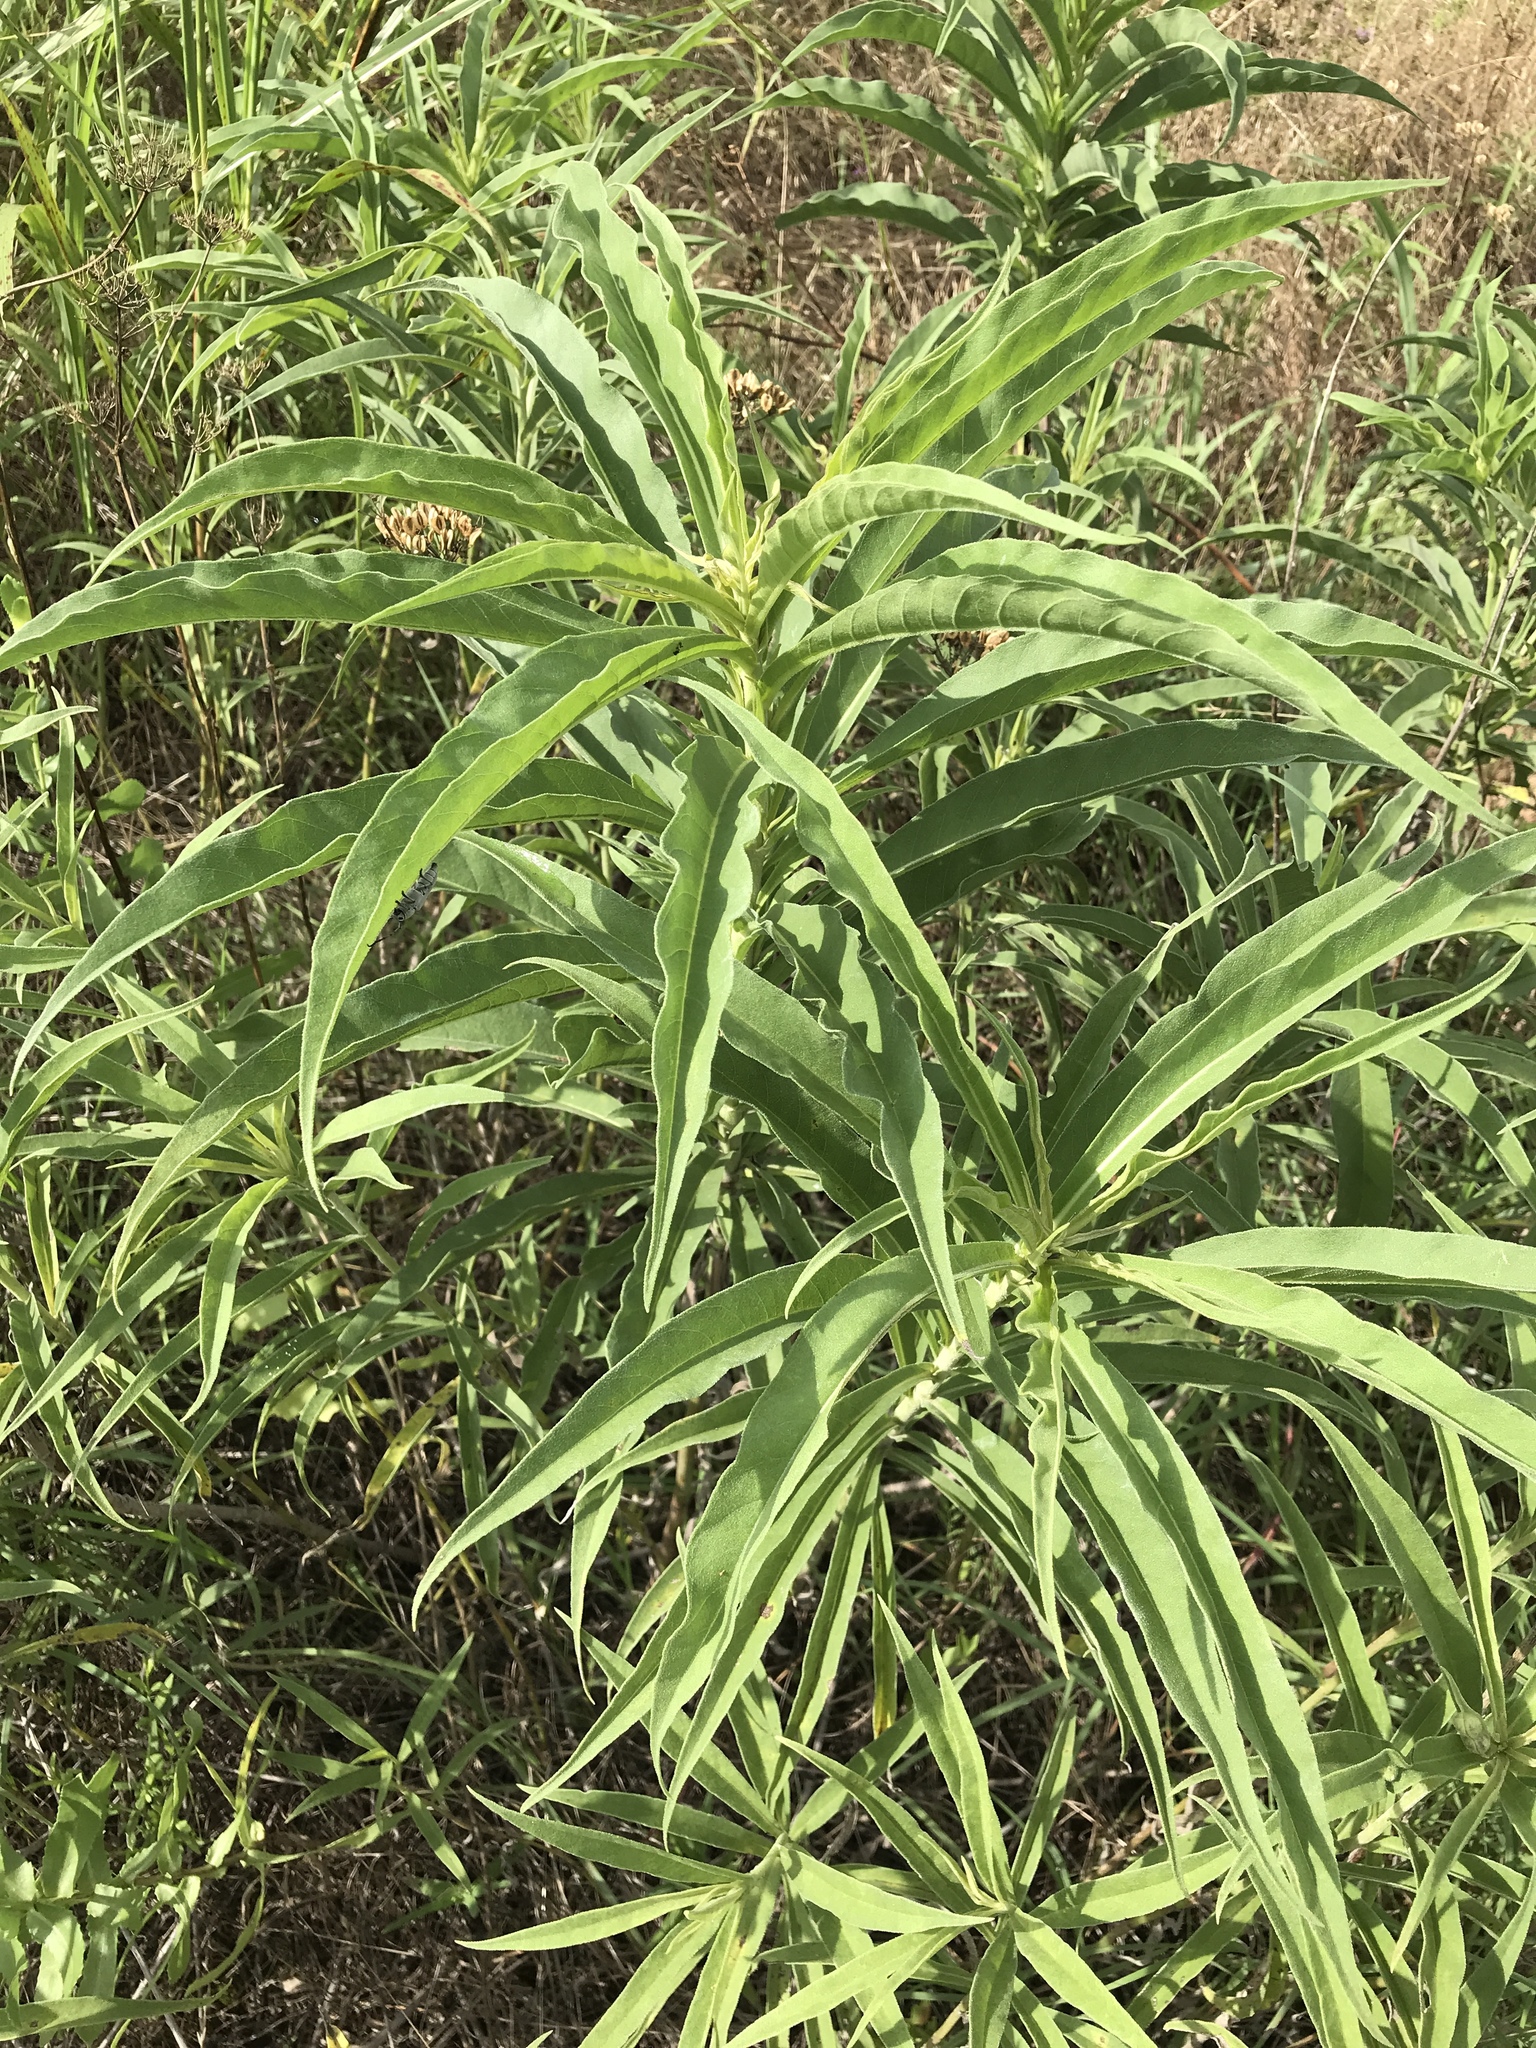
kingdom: Plantae
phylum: Tracheophyta
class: Magnoliopsida
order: Asterales
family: Asteraceae
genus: Helianthus
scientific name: Helianthus maximiliani
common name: Maximilian's sunflower
